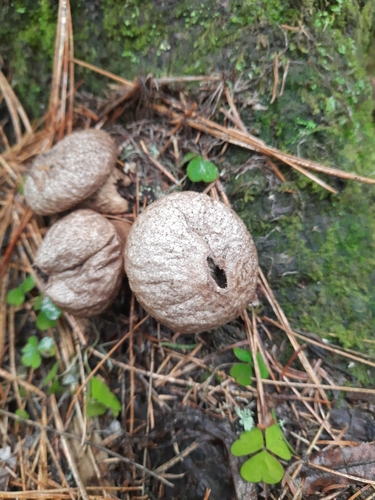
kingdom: Fungi
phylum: Basidiomycota
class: Agaricomycetes
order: Agaricales
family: Lycoperdaceae
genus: Lycoperdon
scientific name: Lycoperdon perlatum
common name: Common puffball
